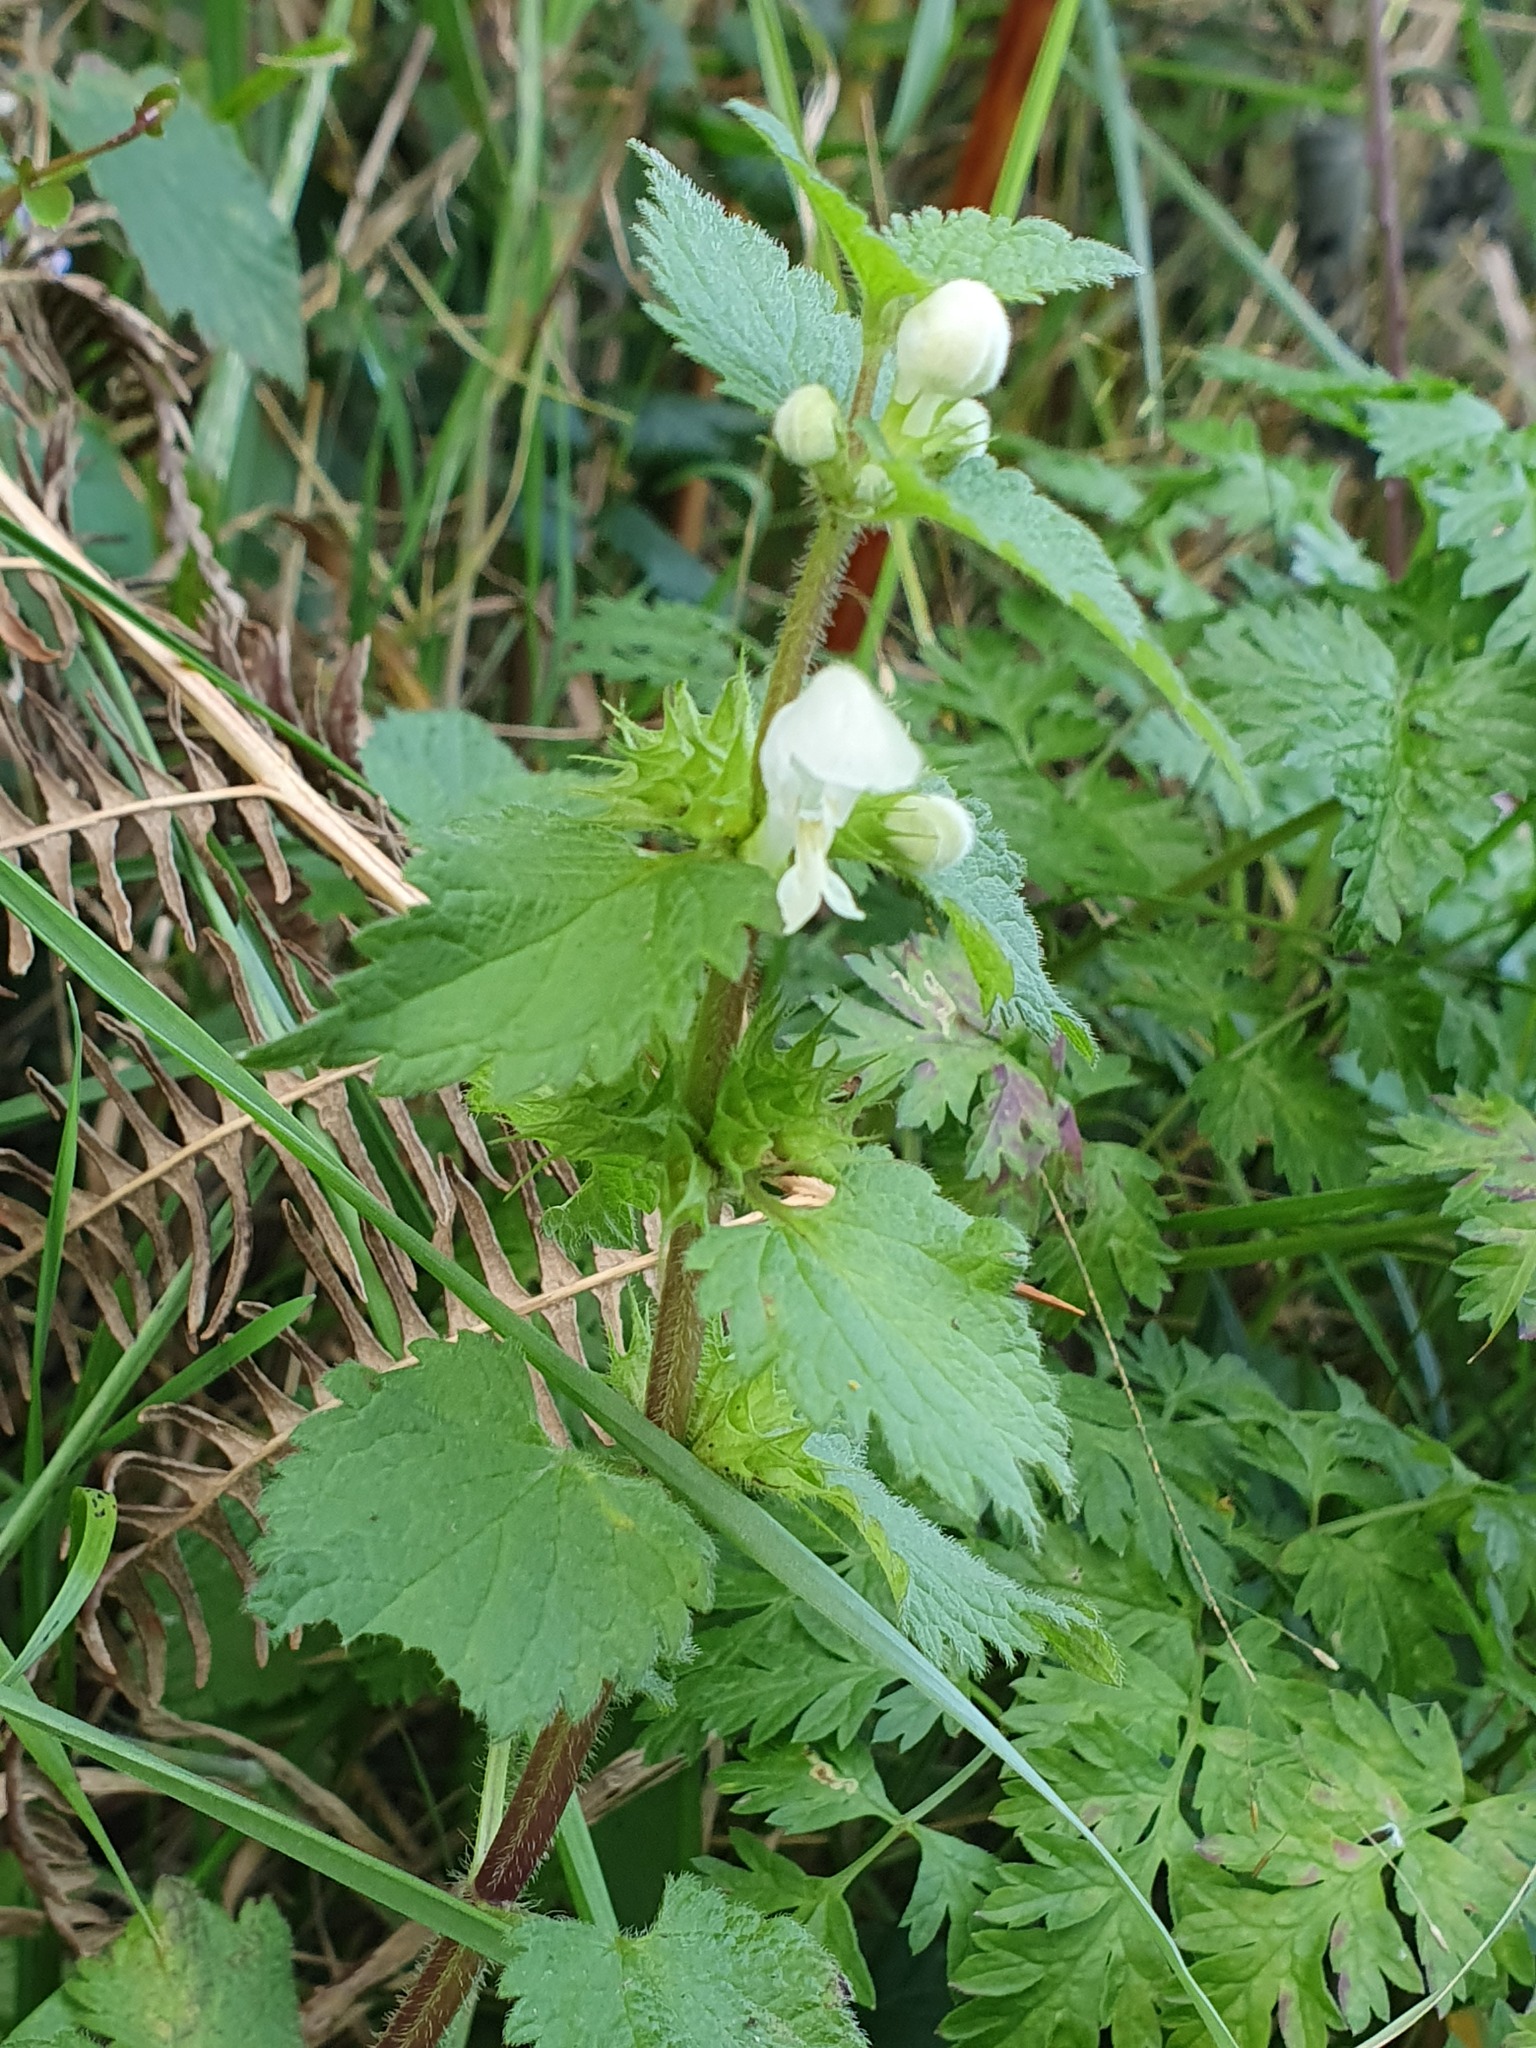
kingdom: Plantae
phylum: Tracheophyta
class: Magnoliopsida
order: Lamiales
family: Lamiaceae
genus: Lamium
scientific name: Lamium album
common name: White dead-nettle
